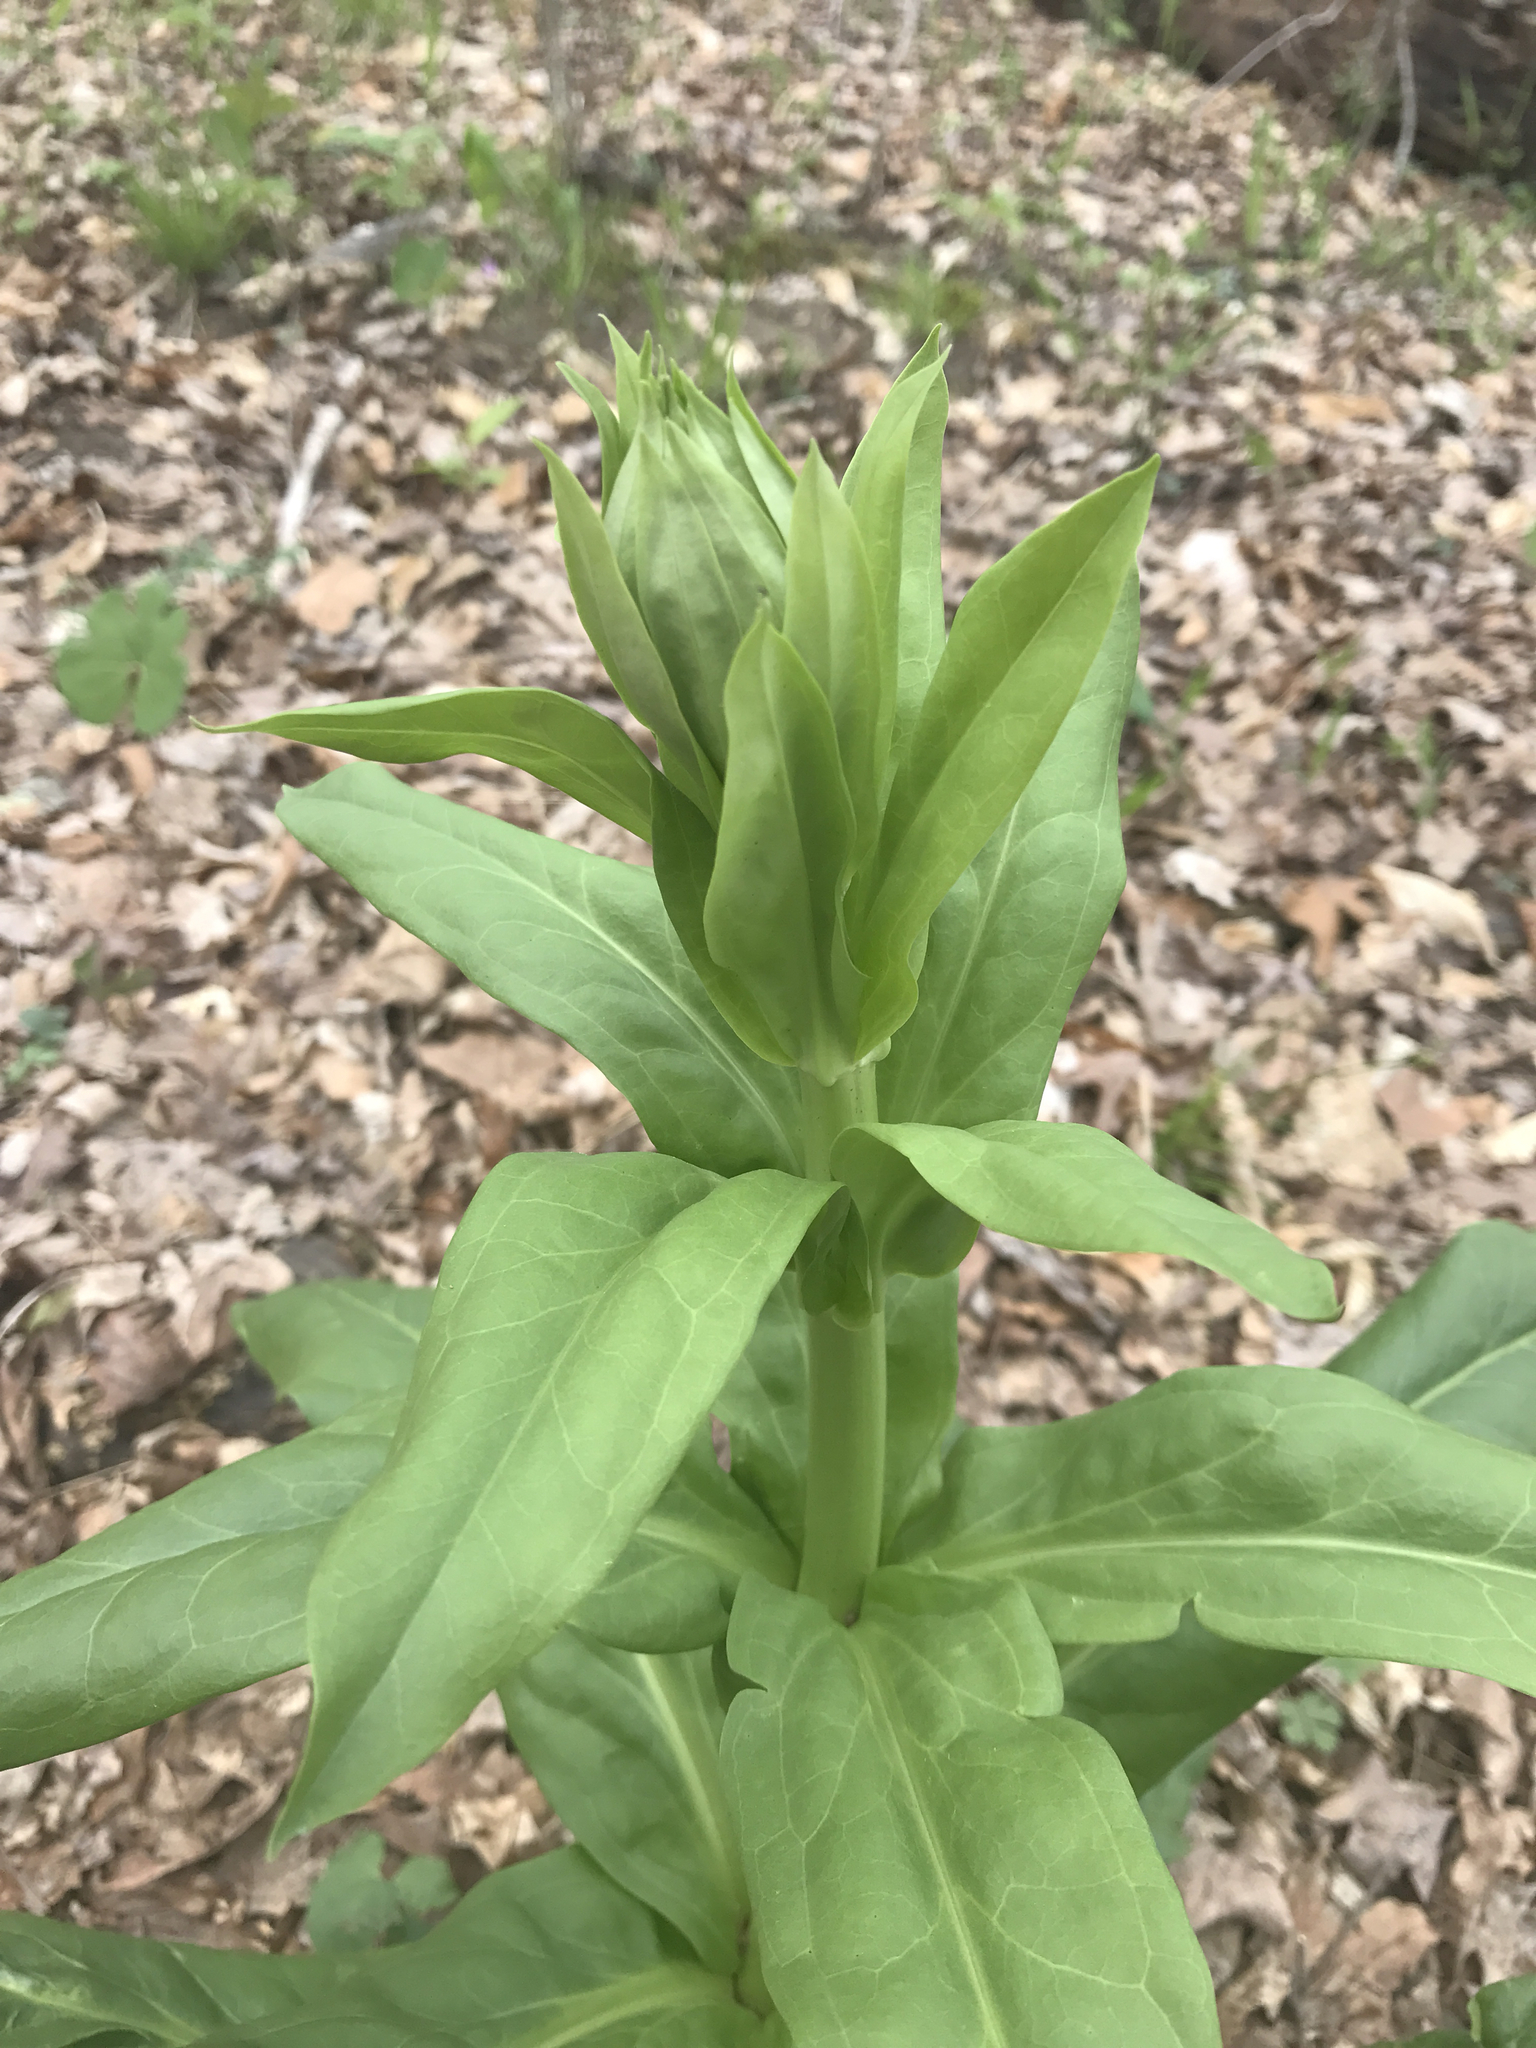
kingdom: Plantae
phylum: Tracheophyta
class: Magnoliopsida
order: Gentianales
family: Gentianaceae
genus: Frasera
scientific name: Frasera caroliniensis
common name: American columbo
